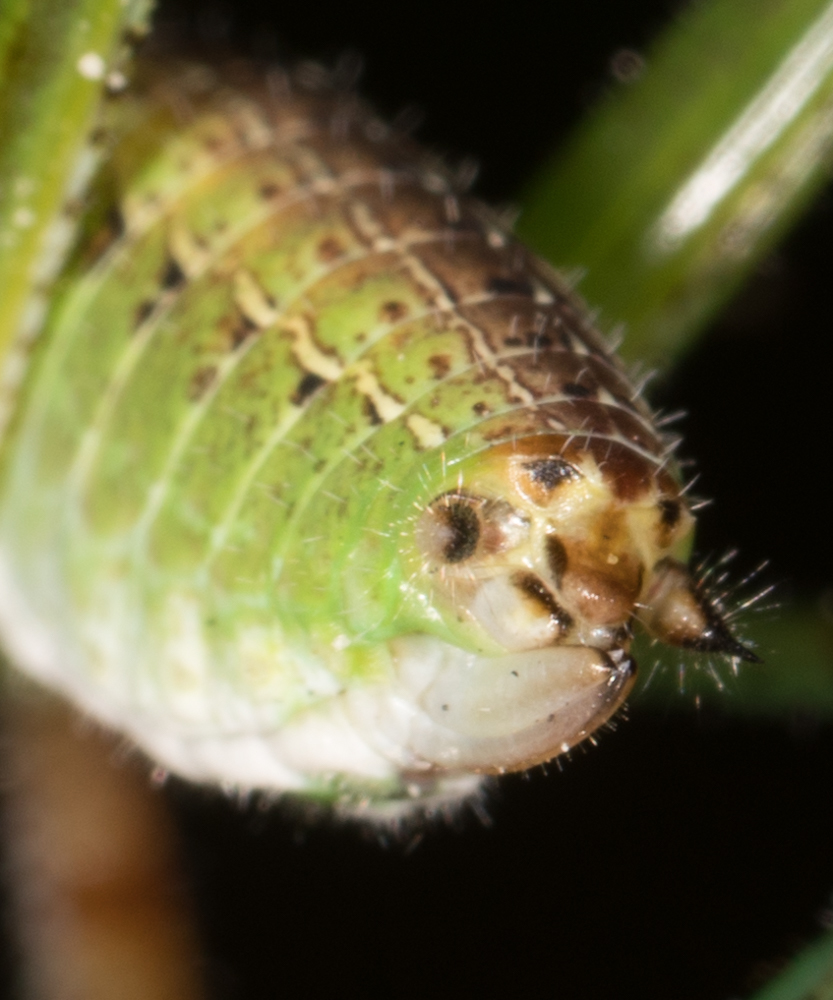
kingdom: Animalia
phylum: Arthropoda
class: Insecta
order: Orthoptera
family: Tettigoniidae
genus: Scudderia
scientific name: Scudderia mexicana
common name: Mexican bush katydid
